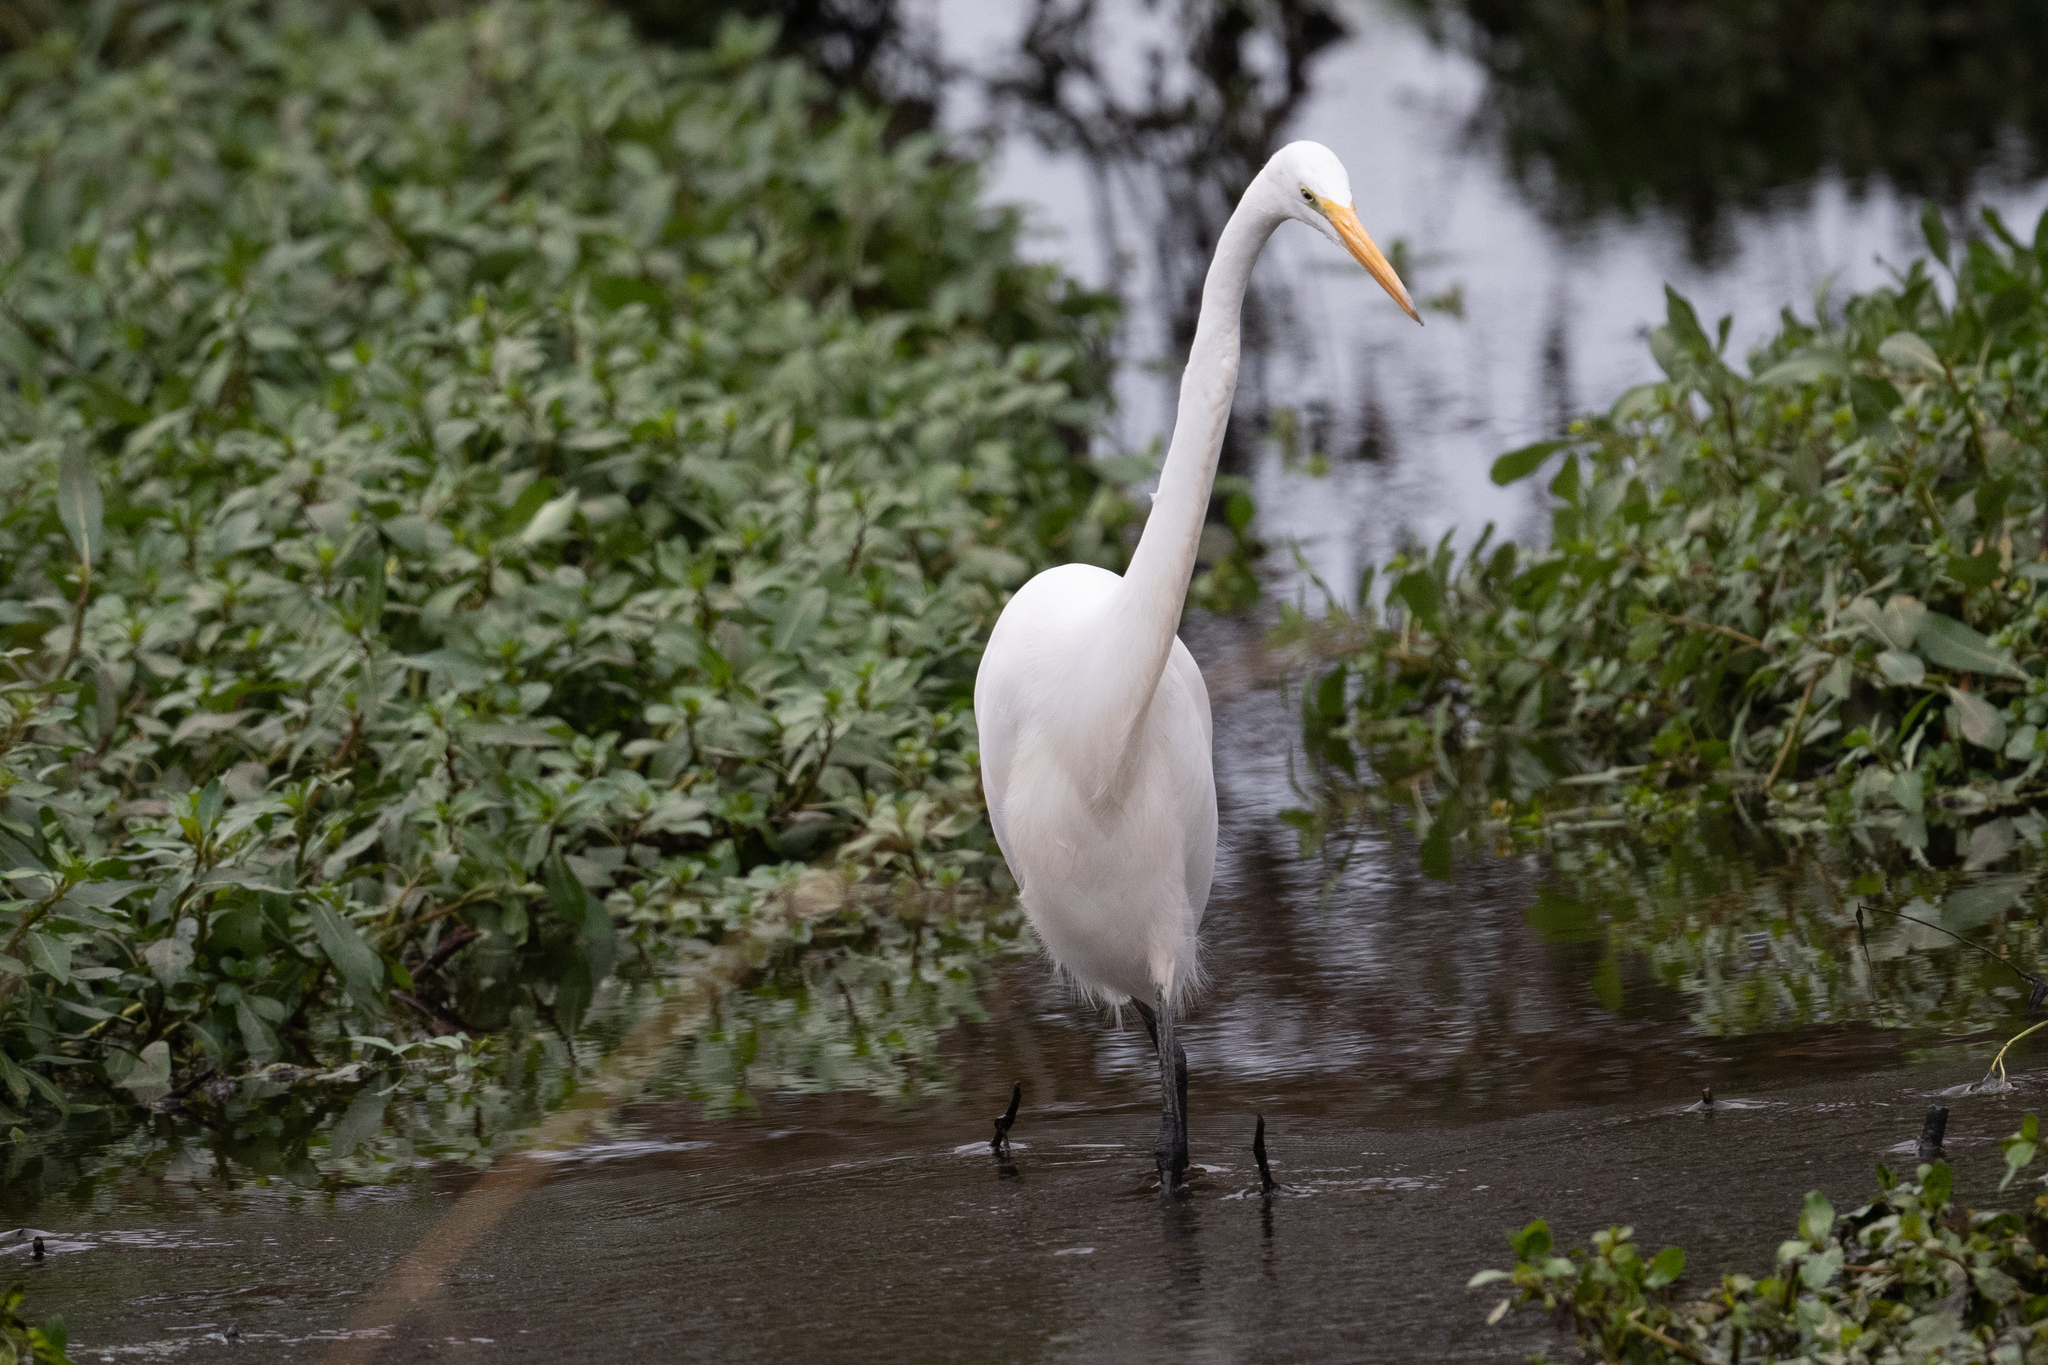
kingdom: Animalia
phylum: Chordata
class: Aves
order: Pelecaniformes
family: Ardeidae
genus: Ardea
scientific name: Ardea alba
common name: Great egret
